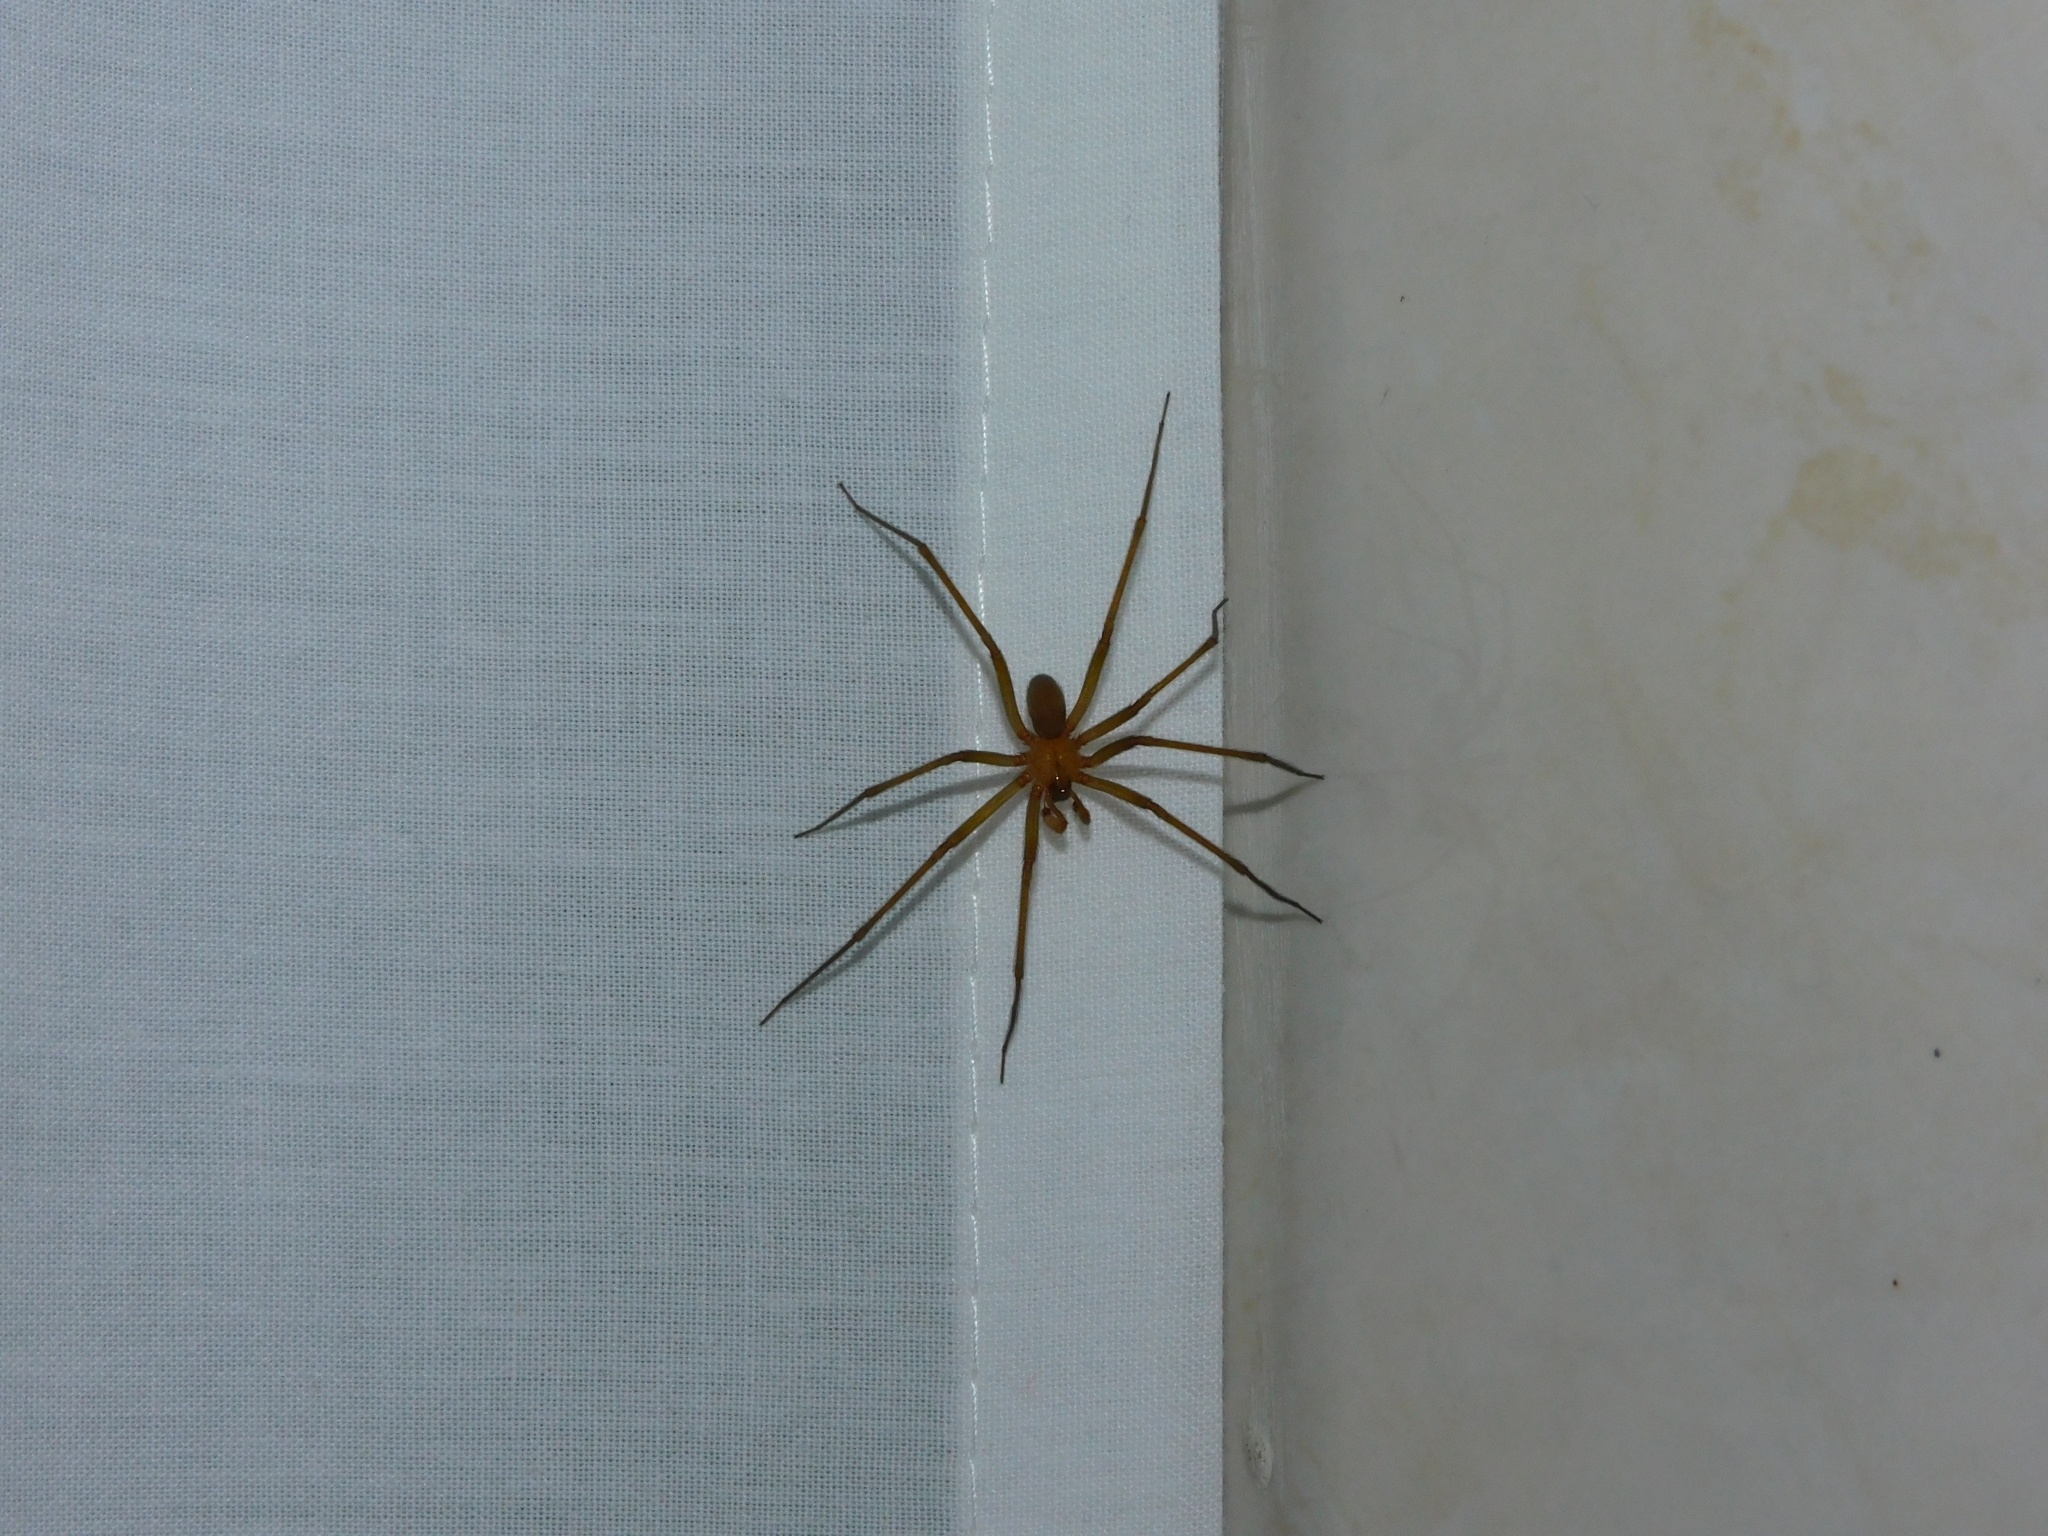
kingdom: Animalia
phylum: Arthropoda
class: Arachnida
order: Araneae
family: Sicariidae
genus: Loxosceles
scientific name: Loxosceles laeta
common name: Chilean recluse spider
